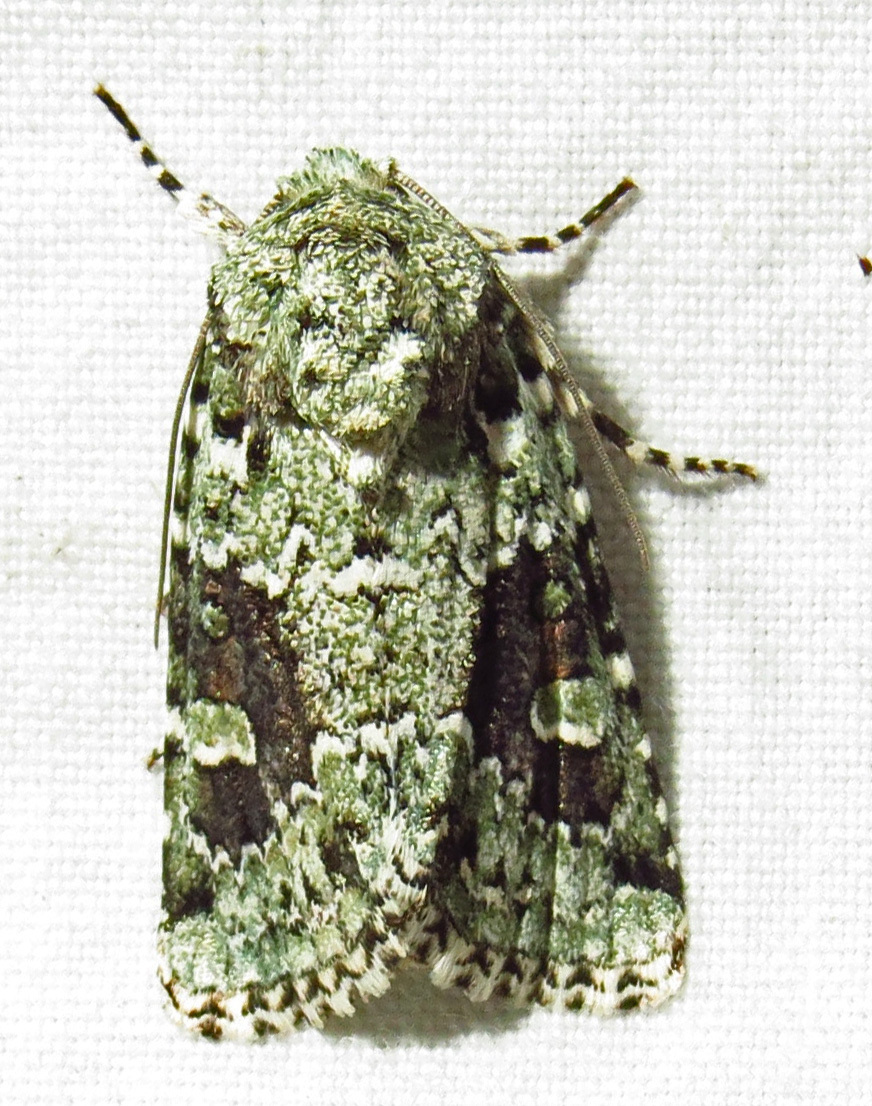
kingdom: Animalia
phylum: Arthropoda
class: Insecta
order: Lepidoptera
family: Noctuidae
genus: Lacinipolia
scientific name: Lacinipolia laudabilis
